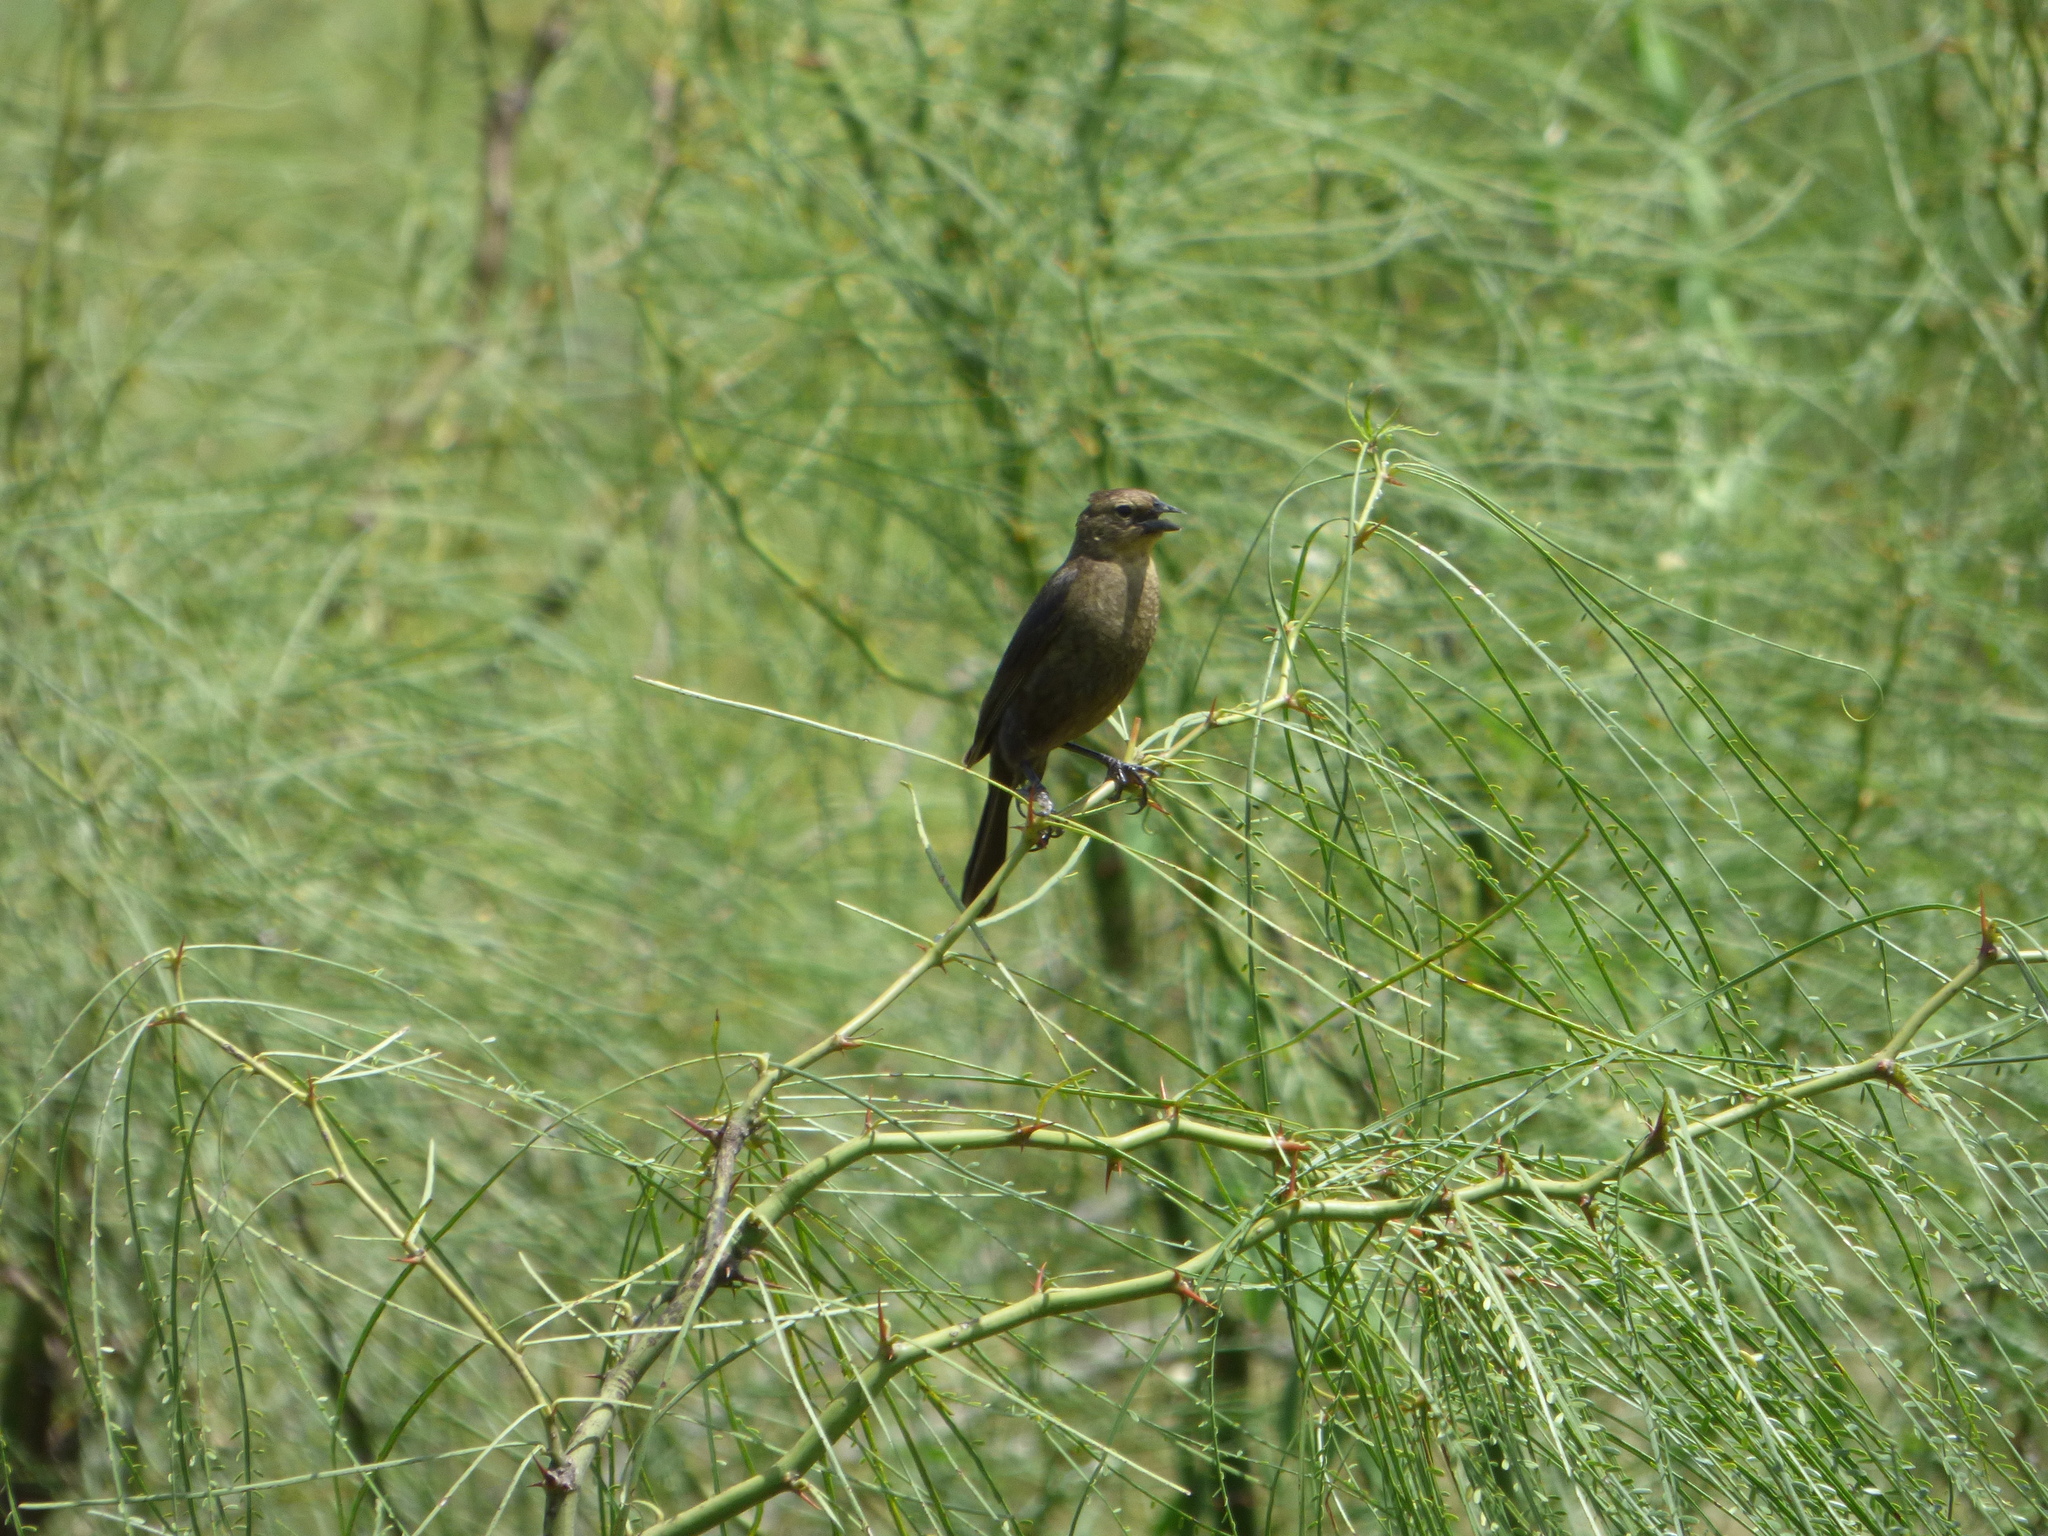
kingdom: Animalia
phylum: Chordata
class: Aves
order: Passeriformes
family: Icteridae
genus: Chrysomus
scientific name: Chrysomus ruficapillus
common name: Chestnut-capped blackbird
